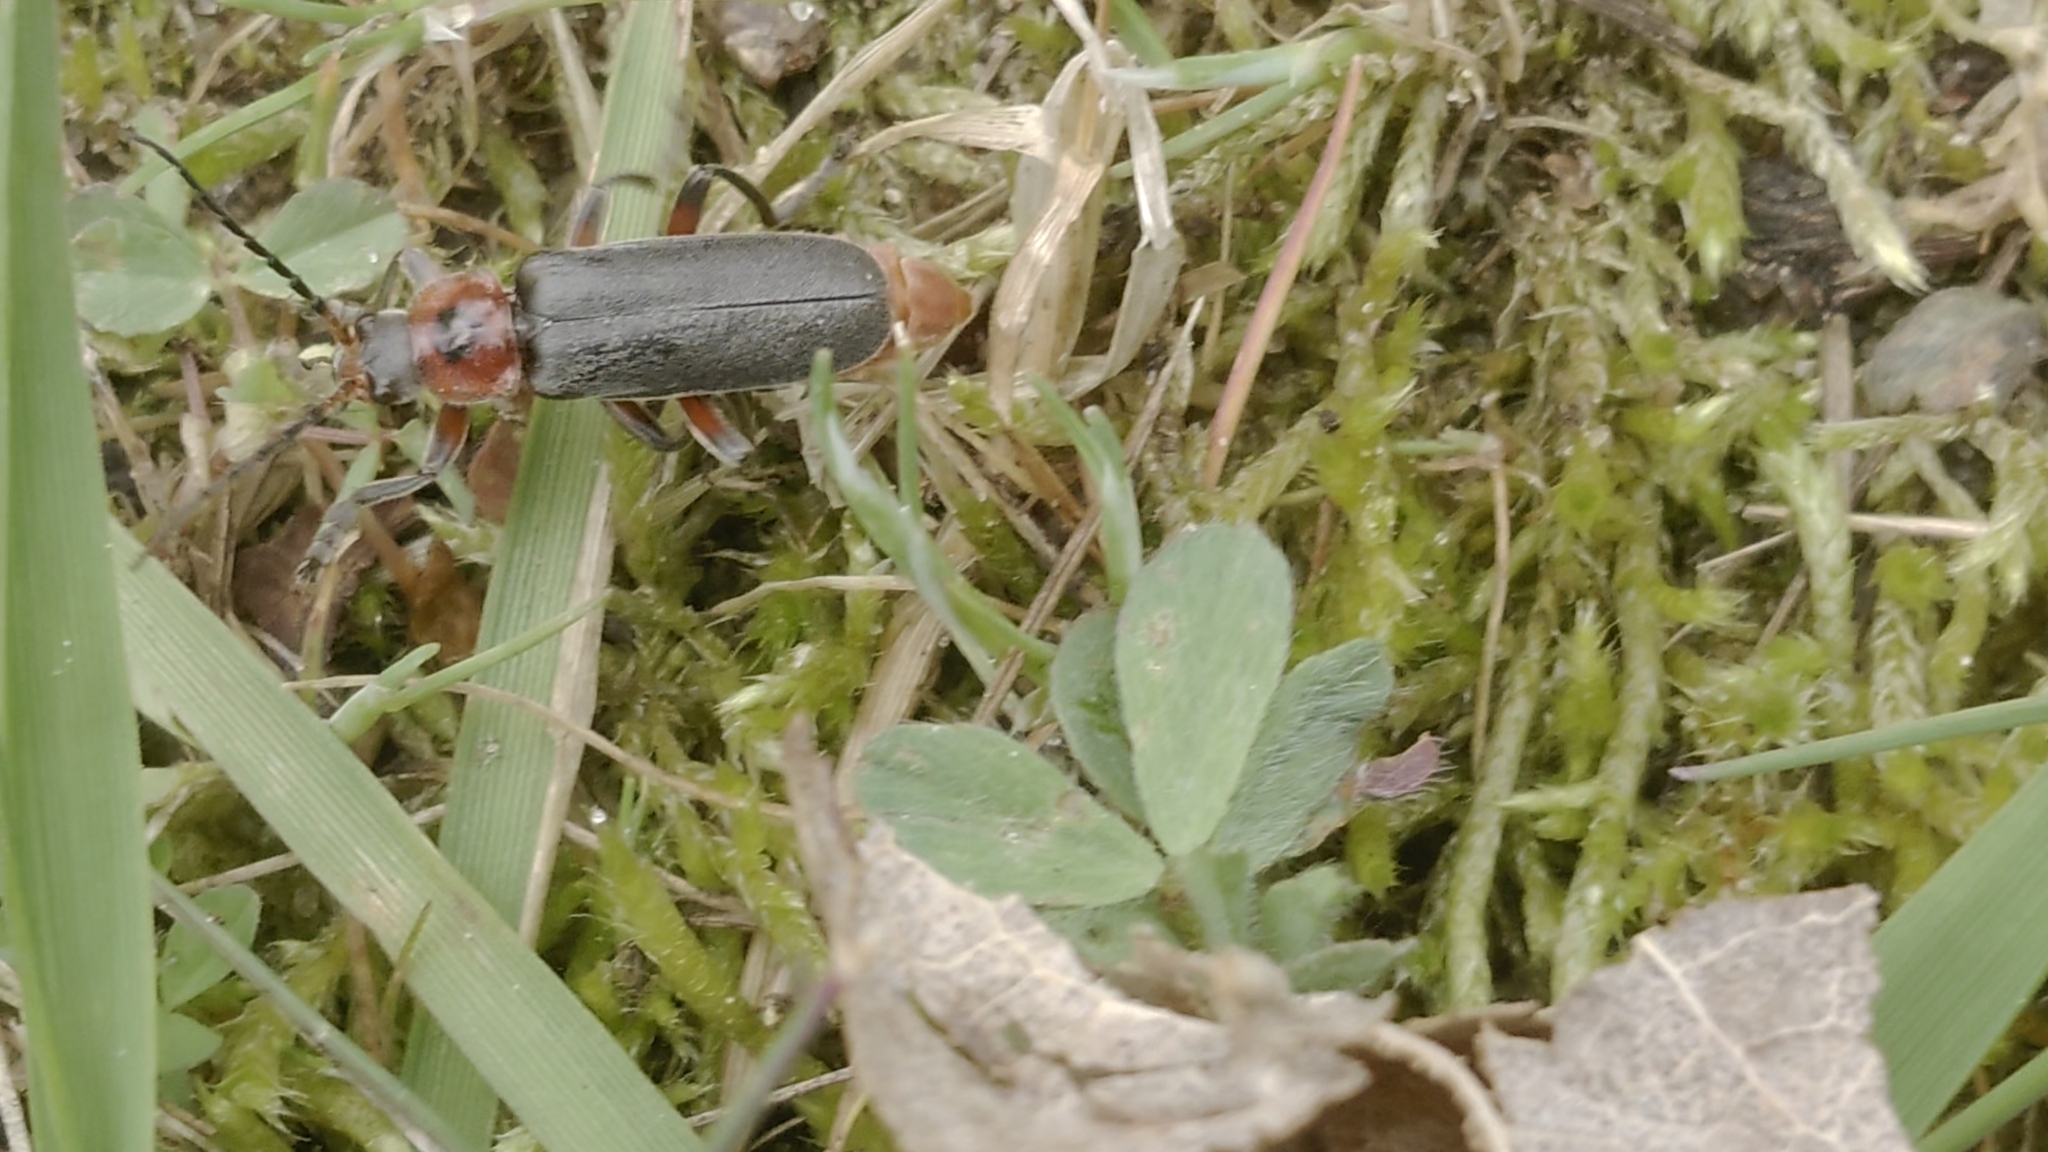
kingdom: Animalia
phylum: Arthropoda
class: Insecta
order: Coleoptera
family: Cantharidae
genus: Cantharis
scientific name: Cantharis rustica
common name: Soldier beetle
